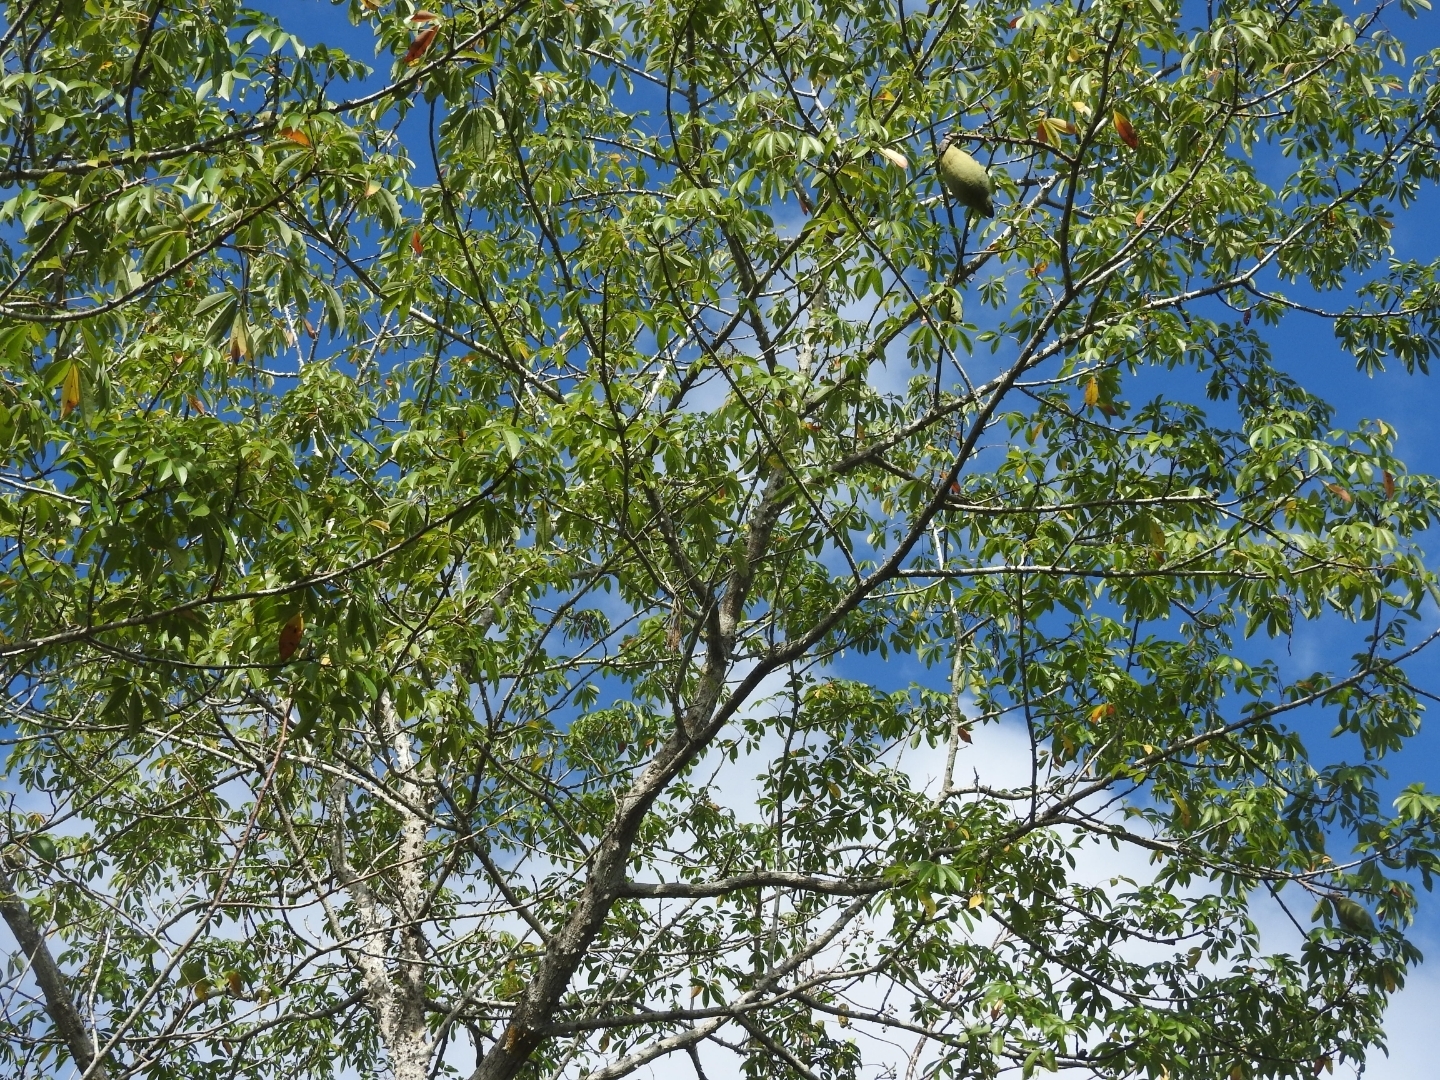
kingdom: Plantae
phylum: Tracheophyta
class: Magnoliopsida
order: Malvales
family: Malvaceae
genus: Ceiba
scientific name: Ceiba aesculifolia
